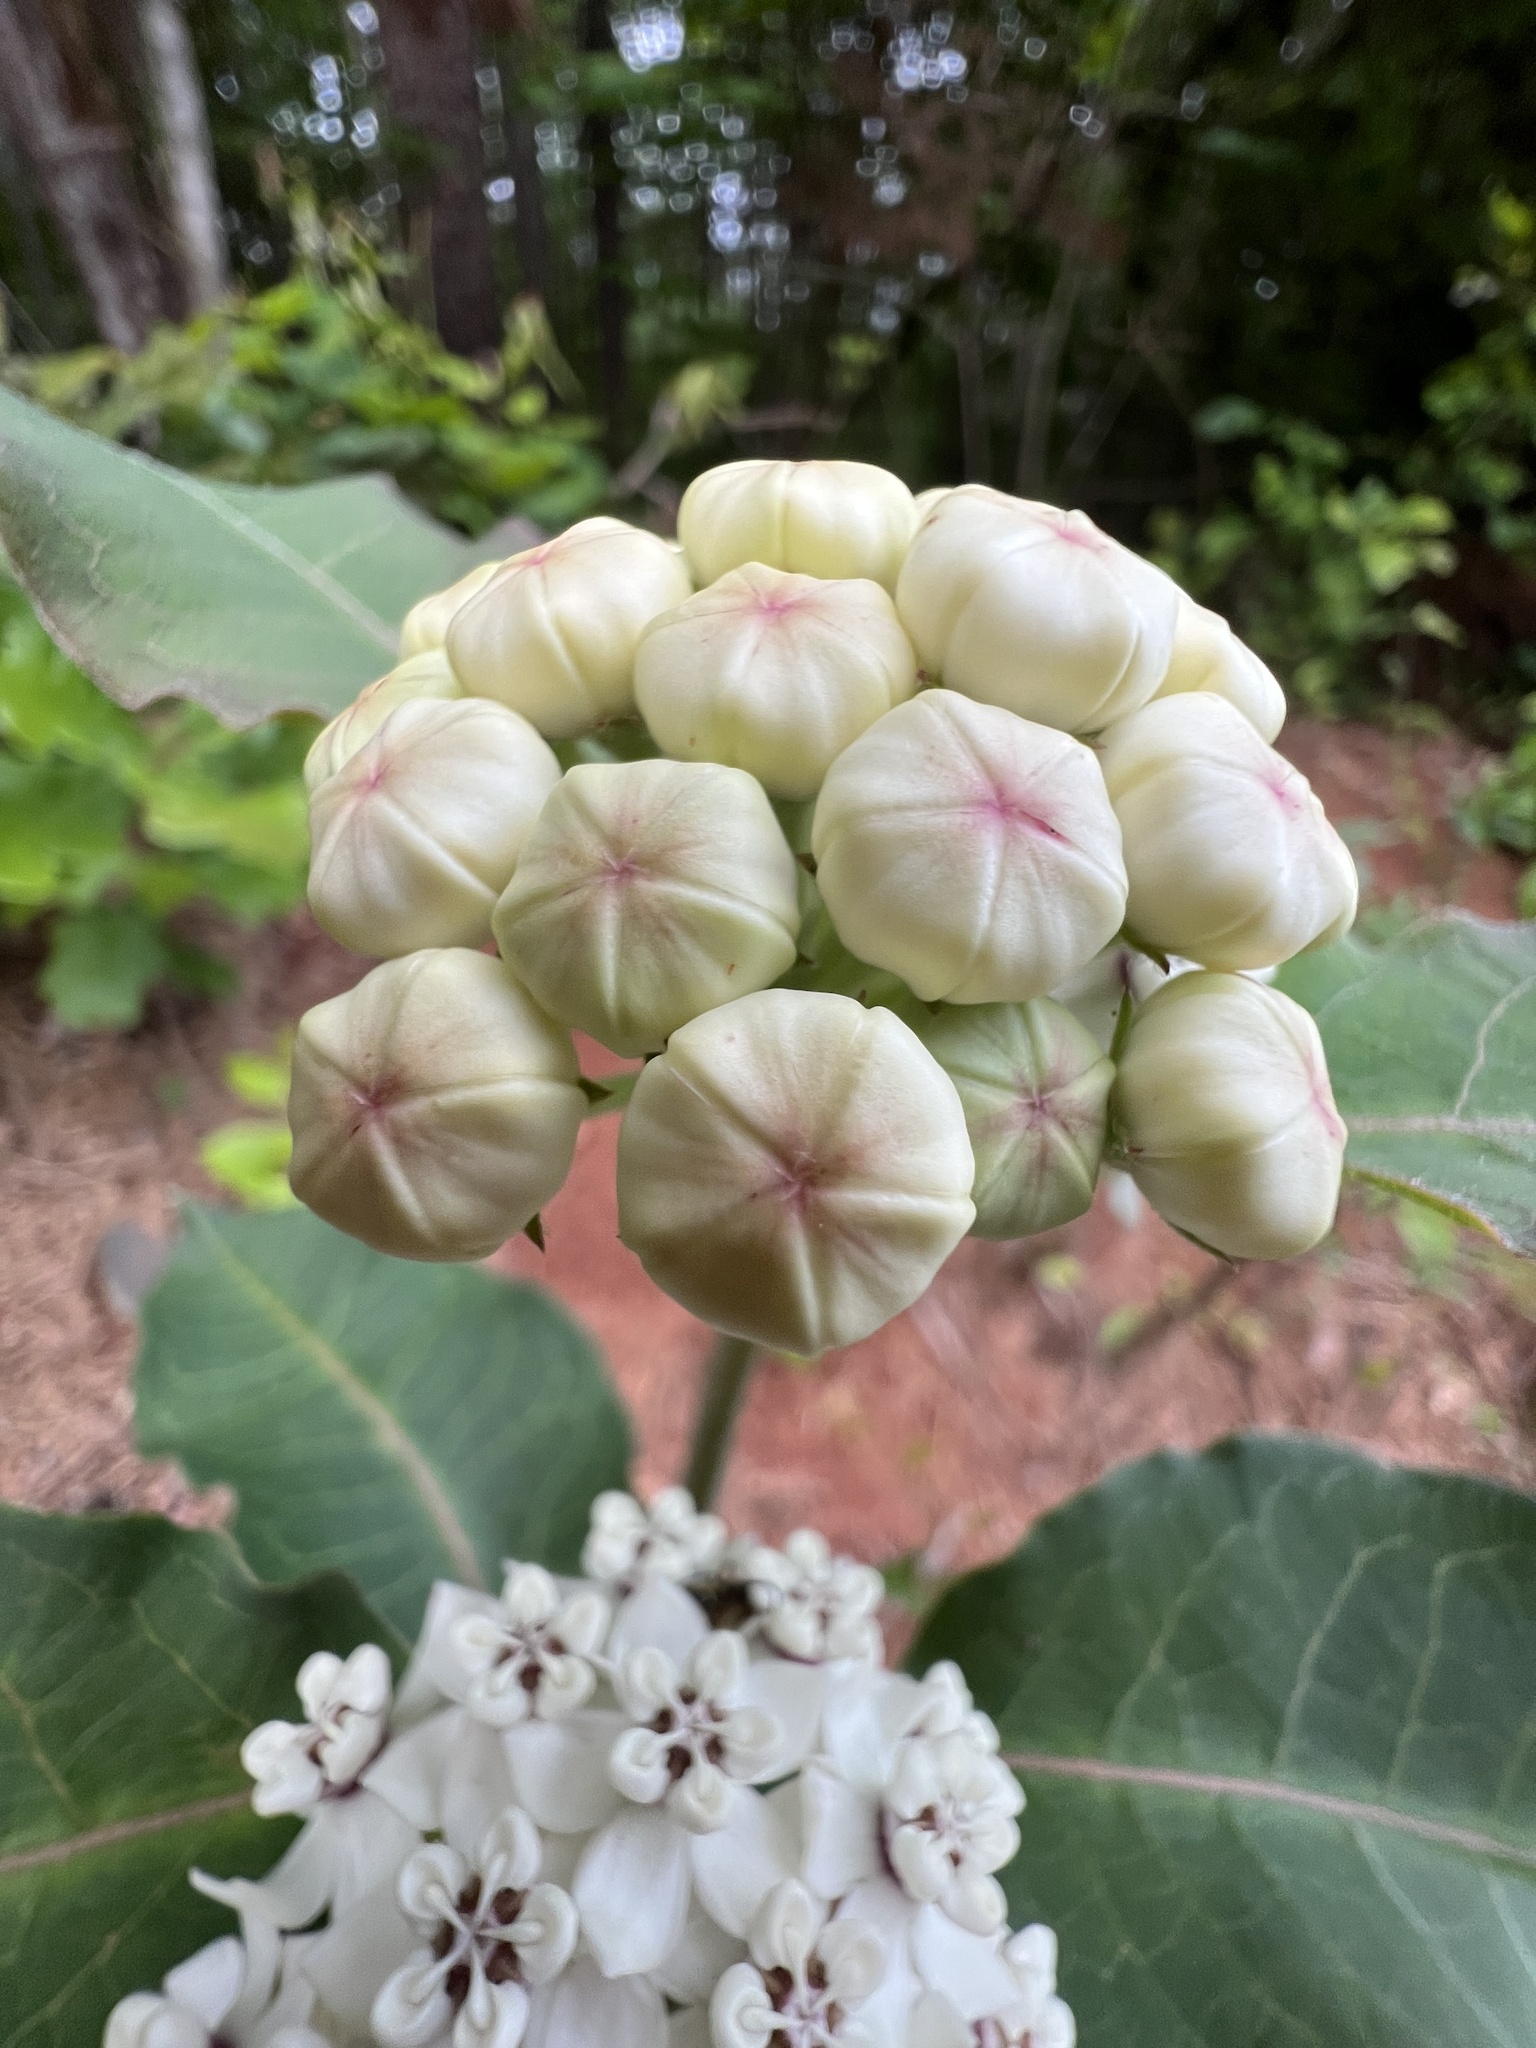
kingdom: Plantae
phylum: Tracheophyta
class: Magnoliopsida
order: Gentianales
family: Apocynaceae
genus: Asclepias
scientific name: Asclepias variegata
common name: Variegated milkweed
